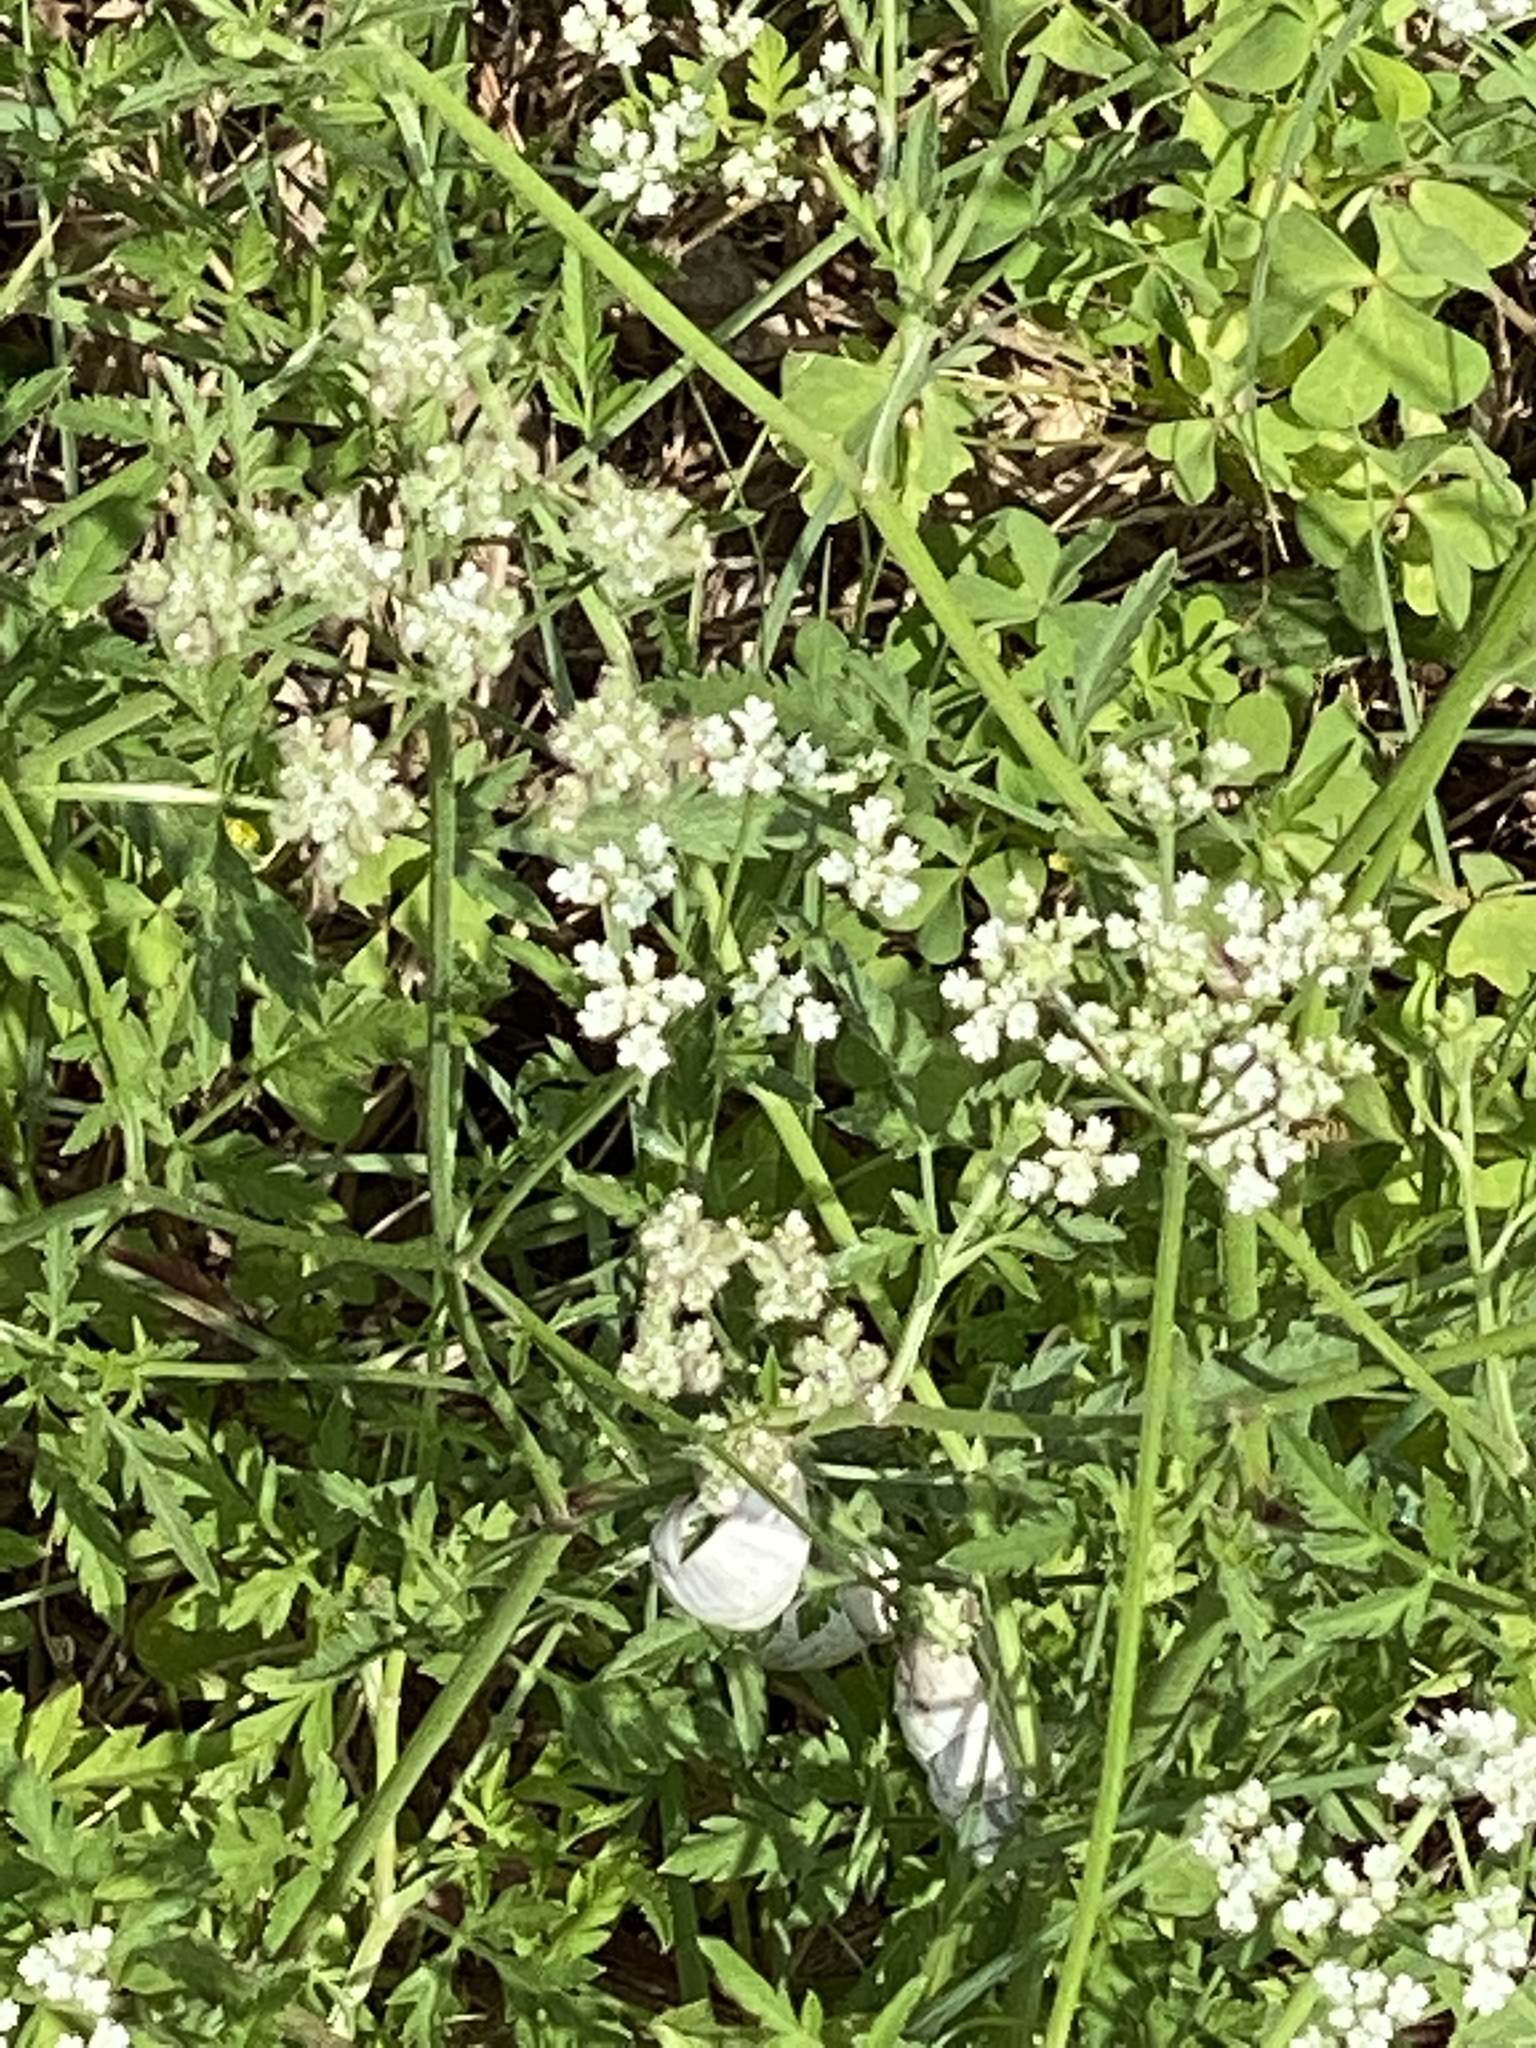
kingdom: Plantae
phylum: Tracheophyta
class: Magnoliopsida
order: Apiales
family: Apiaceae
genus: Torilis
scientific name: Torilis arvensis
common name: Spreading hedge-parsley
